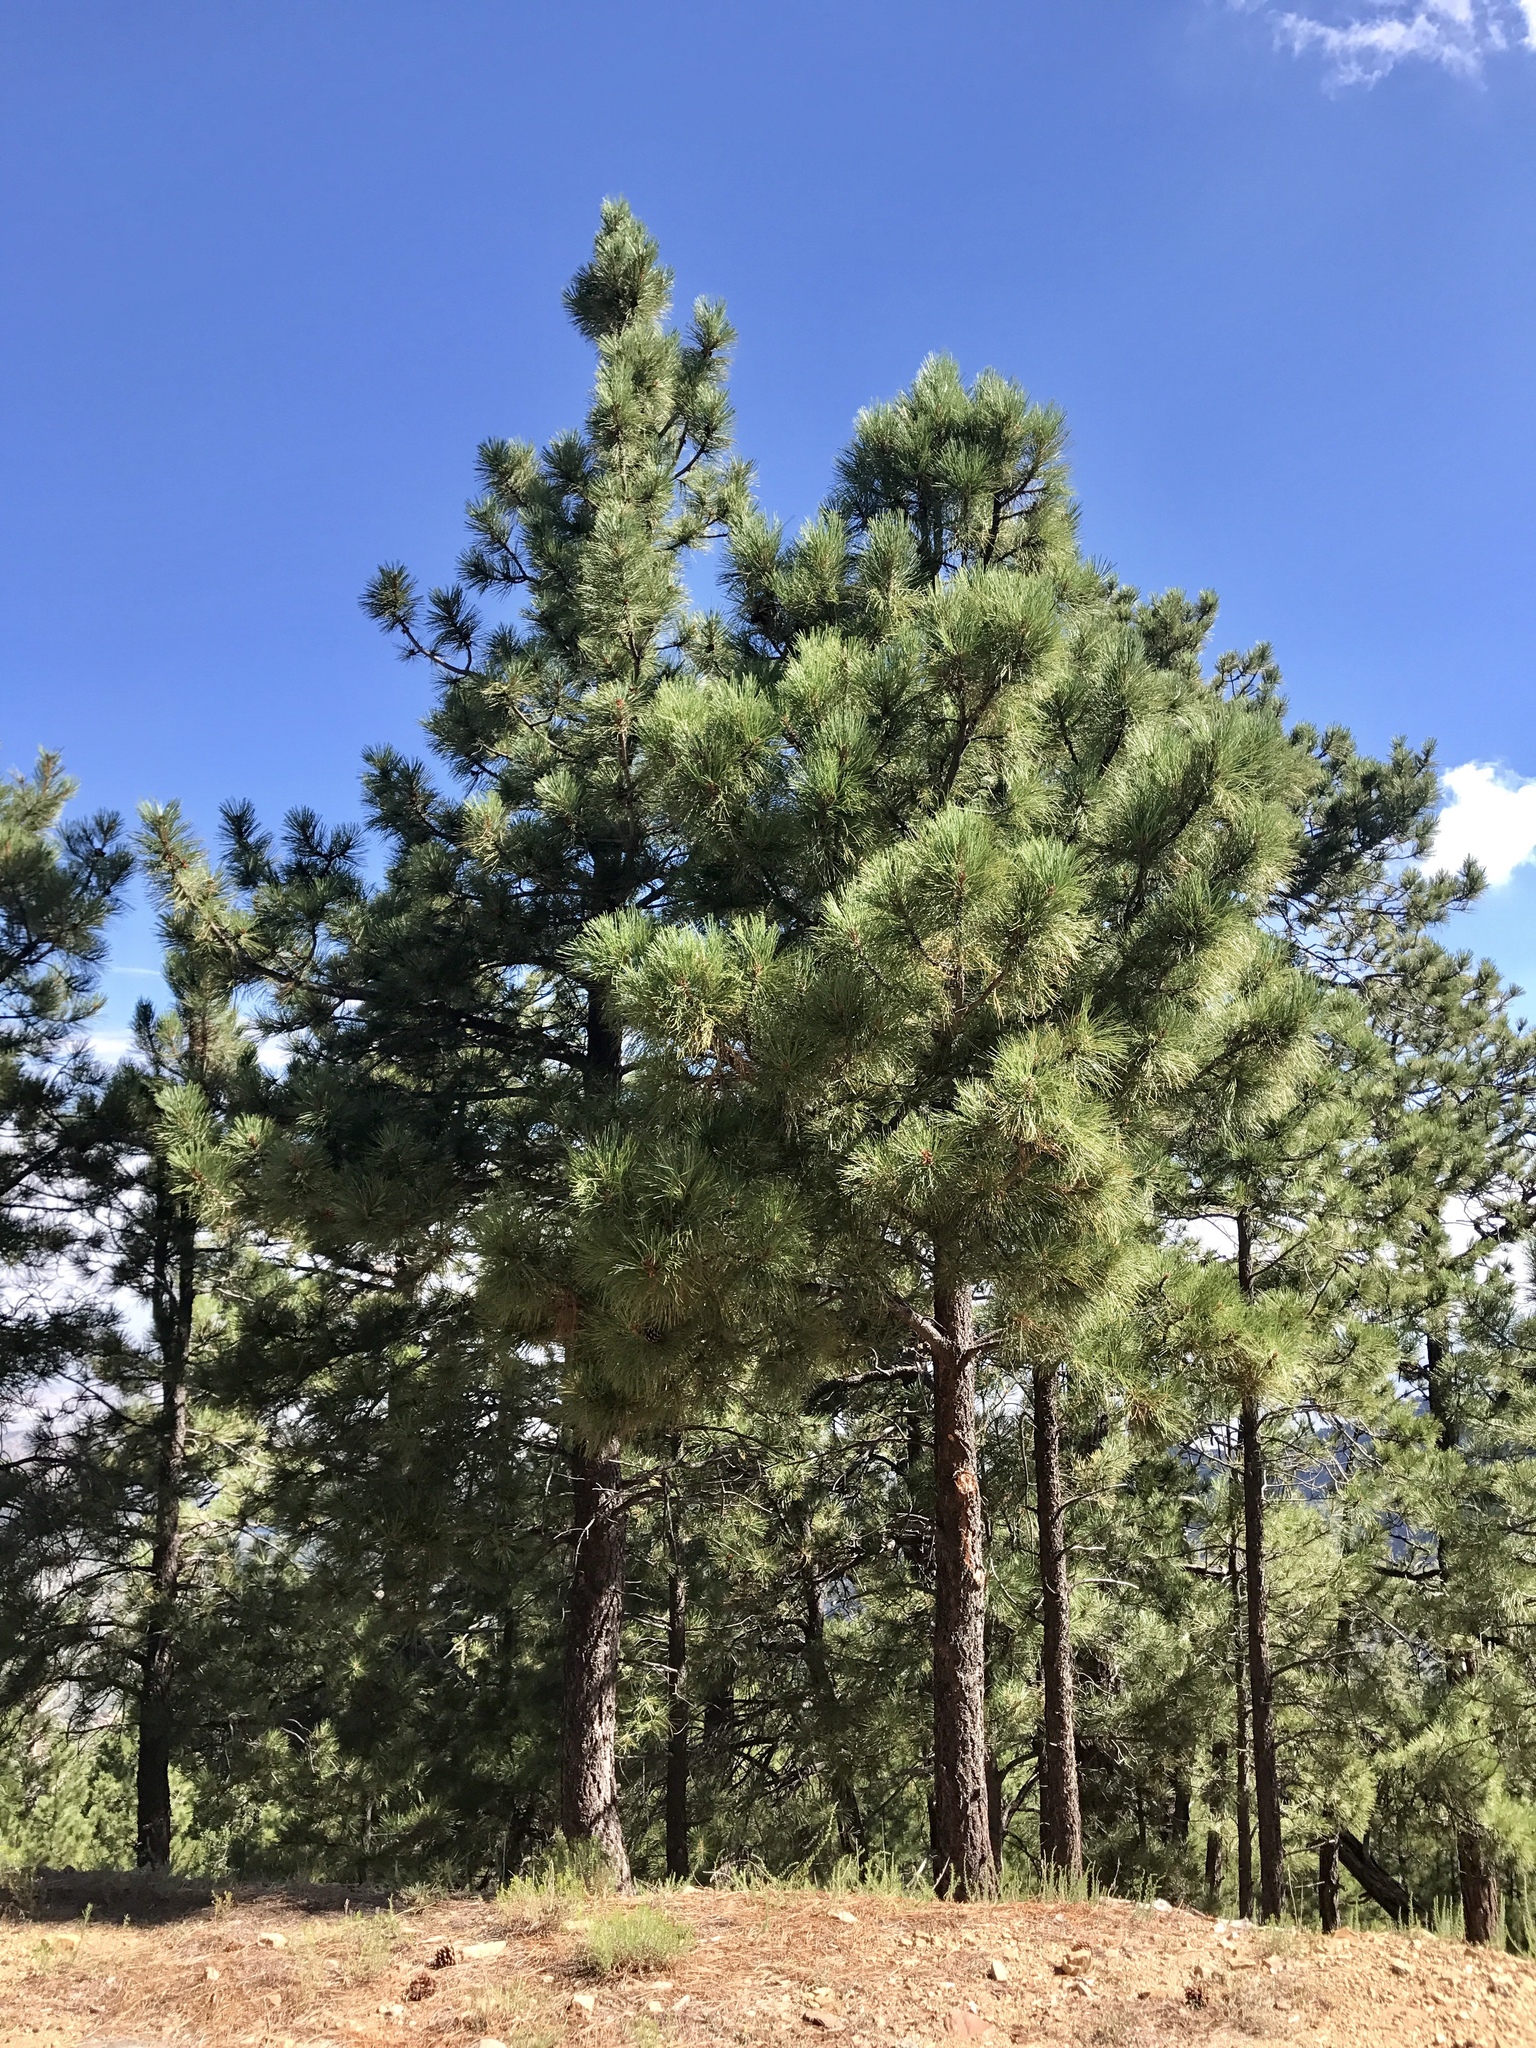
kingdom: Plantae
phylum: Tracheophyta
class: Pinopsida
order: Pinales
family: Pinaceae
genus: Pinus
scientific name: Pinus ponderosa
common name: Western yellow-pine
